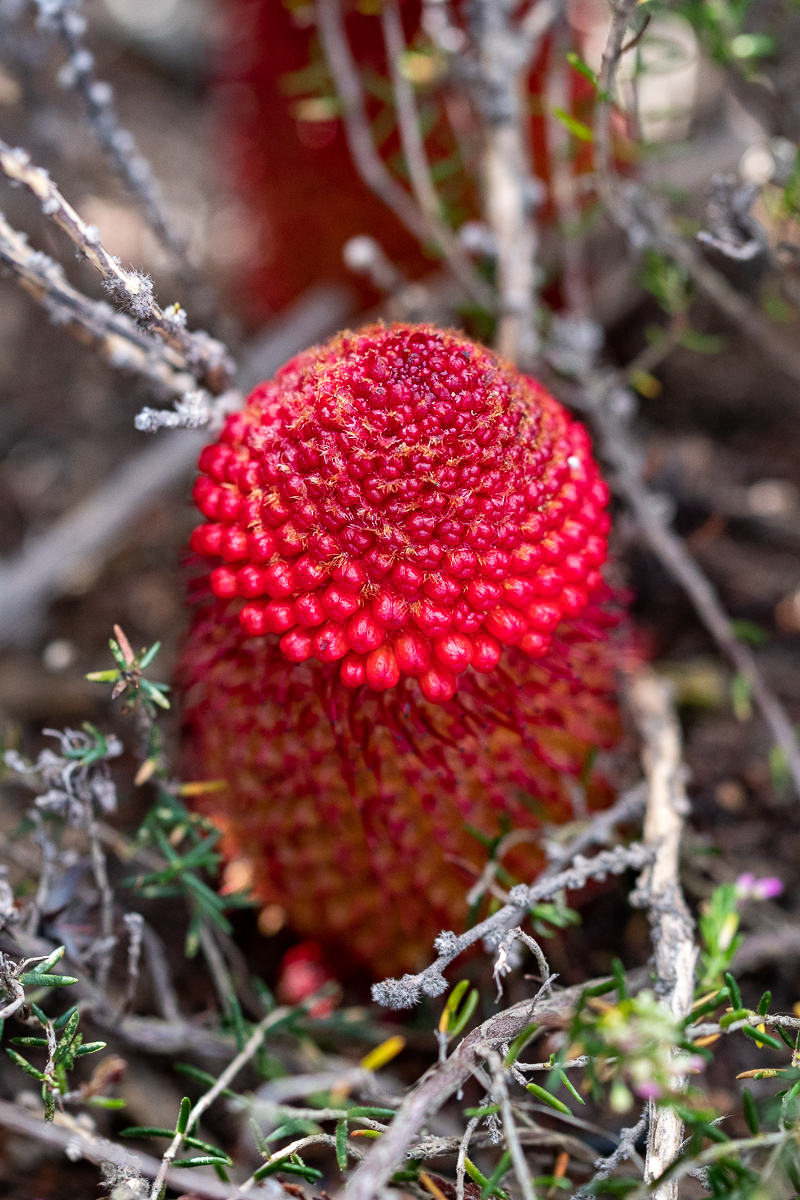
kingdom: Plantae
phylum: Tracheophyta
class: Magnoliopsida
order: Santalales
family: Mystropetalaceae
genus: Mystropetalon
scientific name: Mystropetalon thomii
